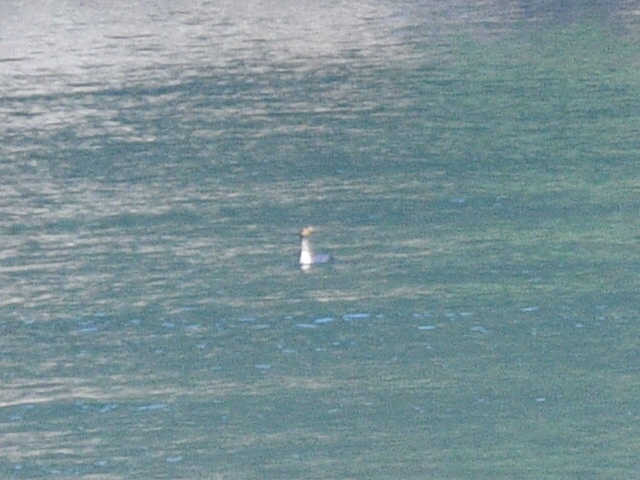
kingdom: Animalia
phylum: Chordata
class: Aves
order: Suliformes
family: Phalacrocoracidae
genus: Phalacrocorax
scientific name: Phalacrocorax auritus
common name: Double-crested cormorant
